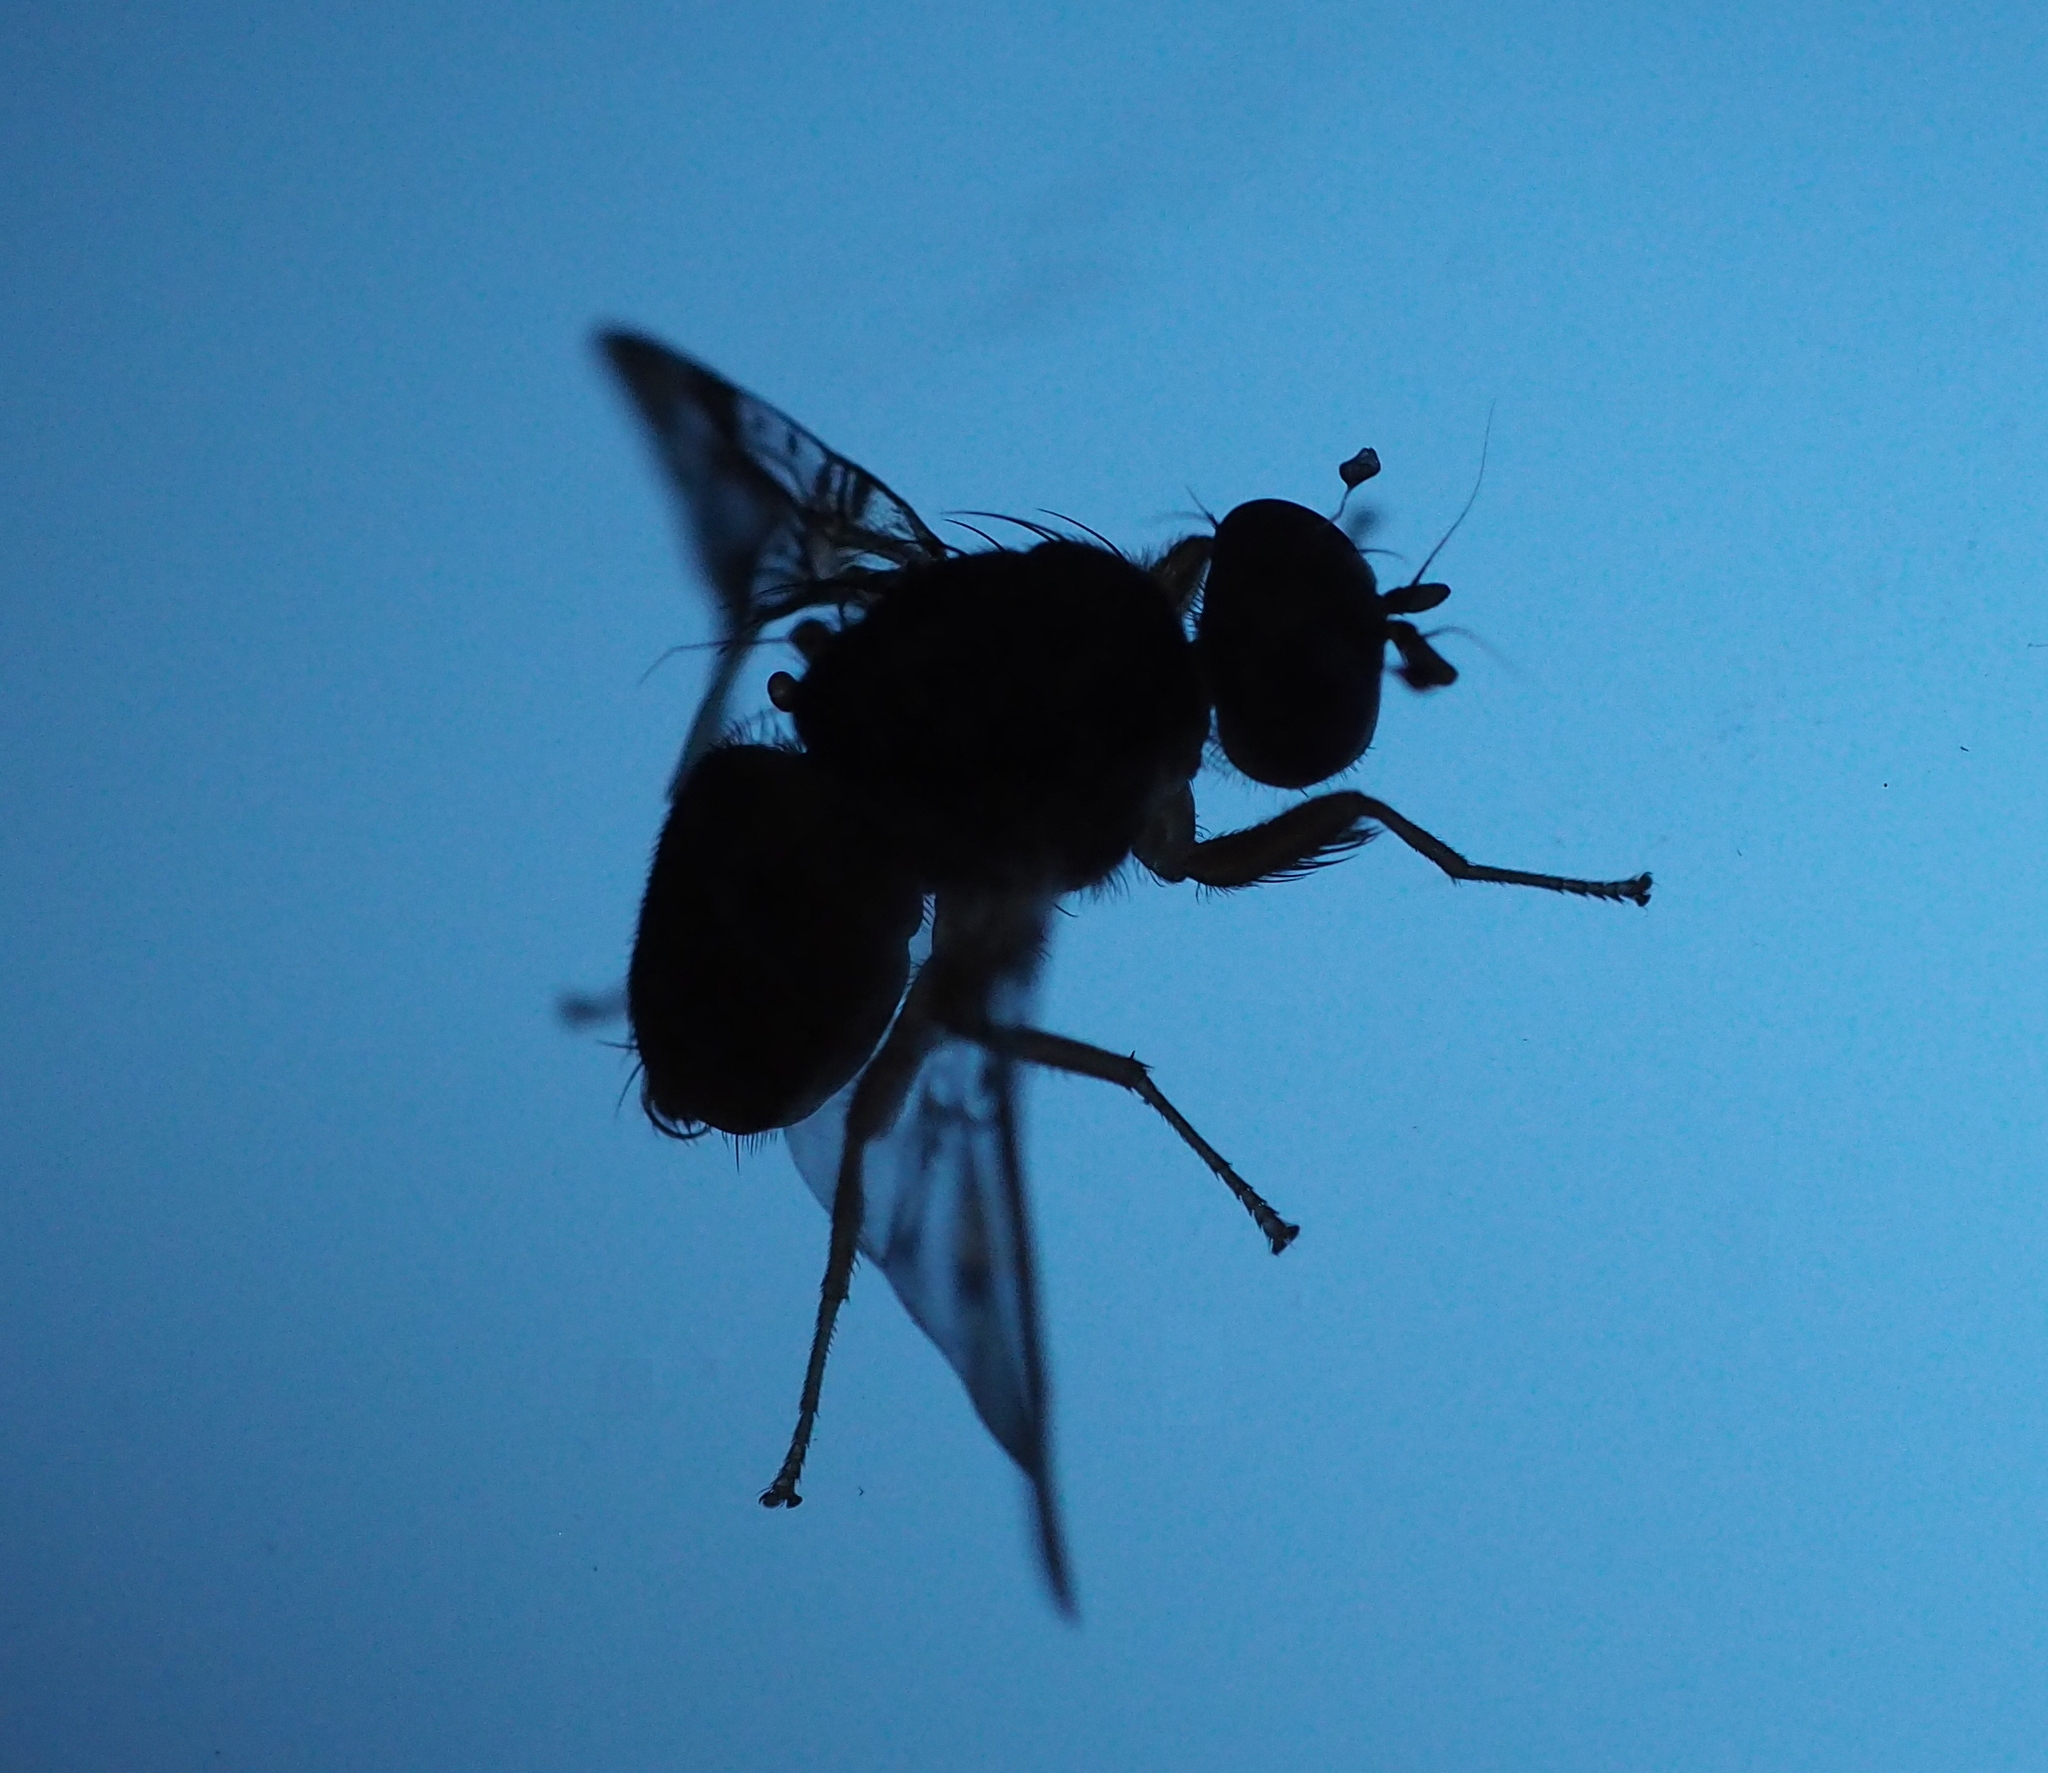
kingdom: Animalia
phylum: Arthropoda
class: Insecta
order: Diptera
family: Tephritidae
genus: Ceratitis
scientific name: Ceratitis capitata
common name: Mediterranean fruit fly
